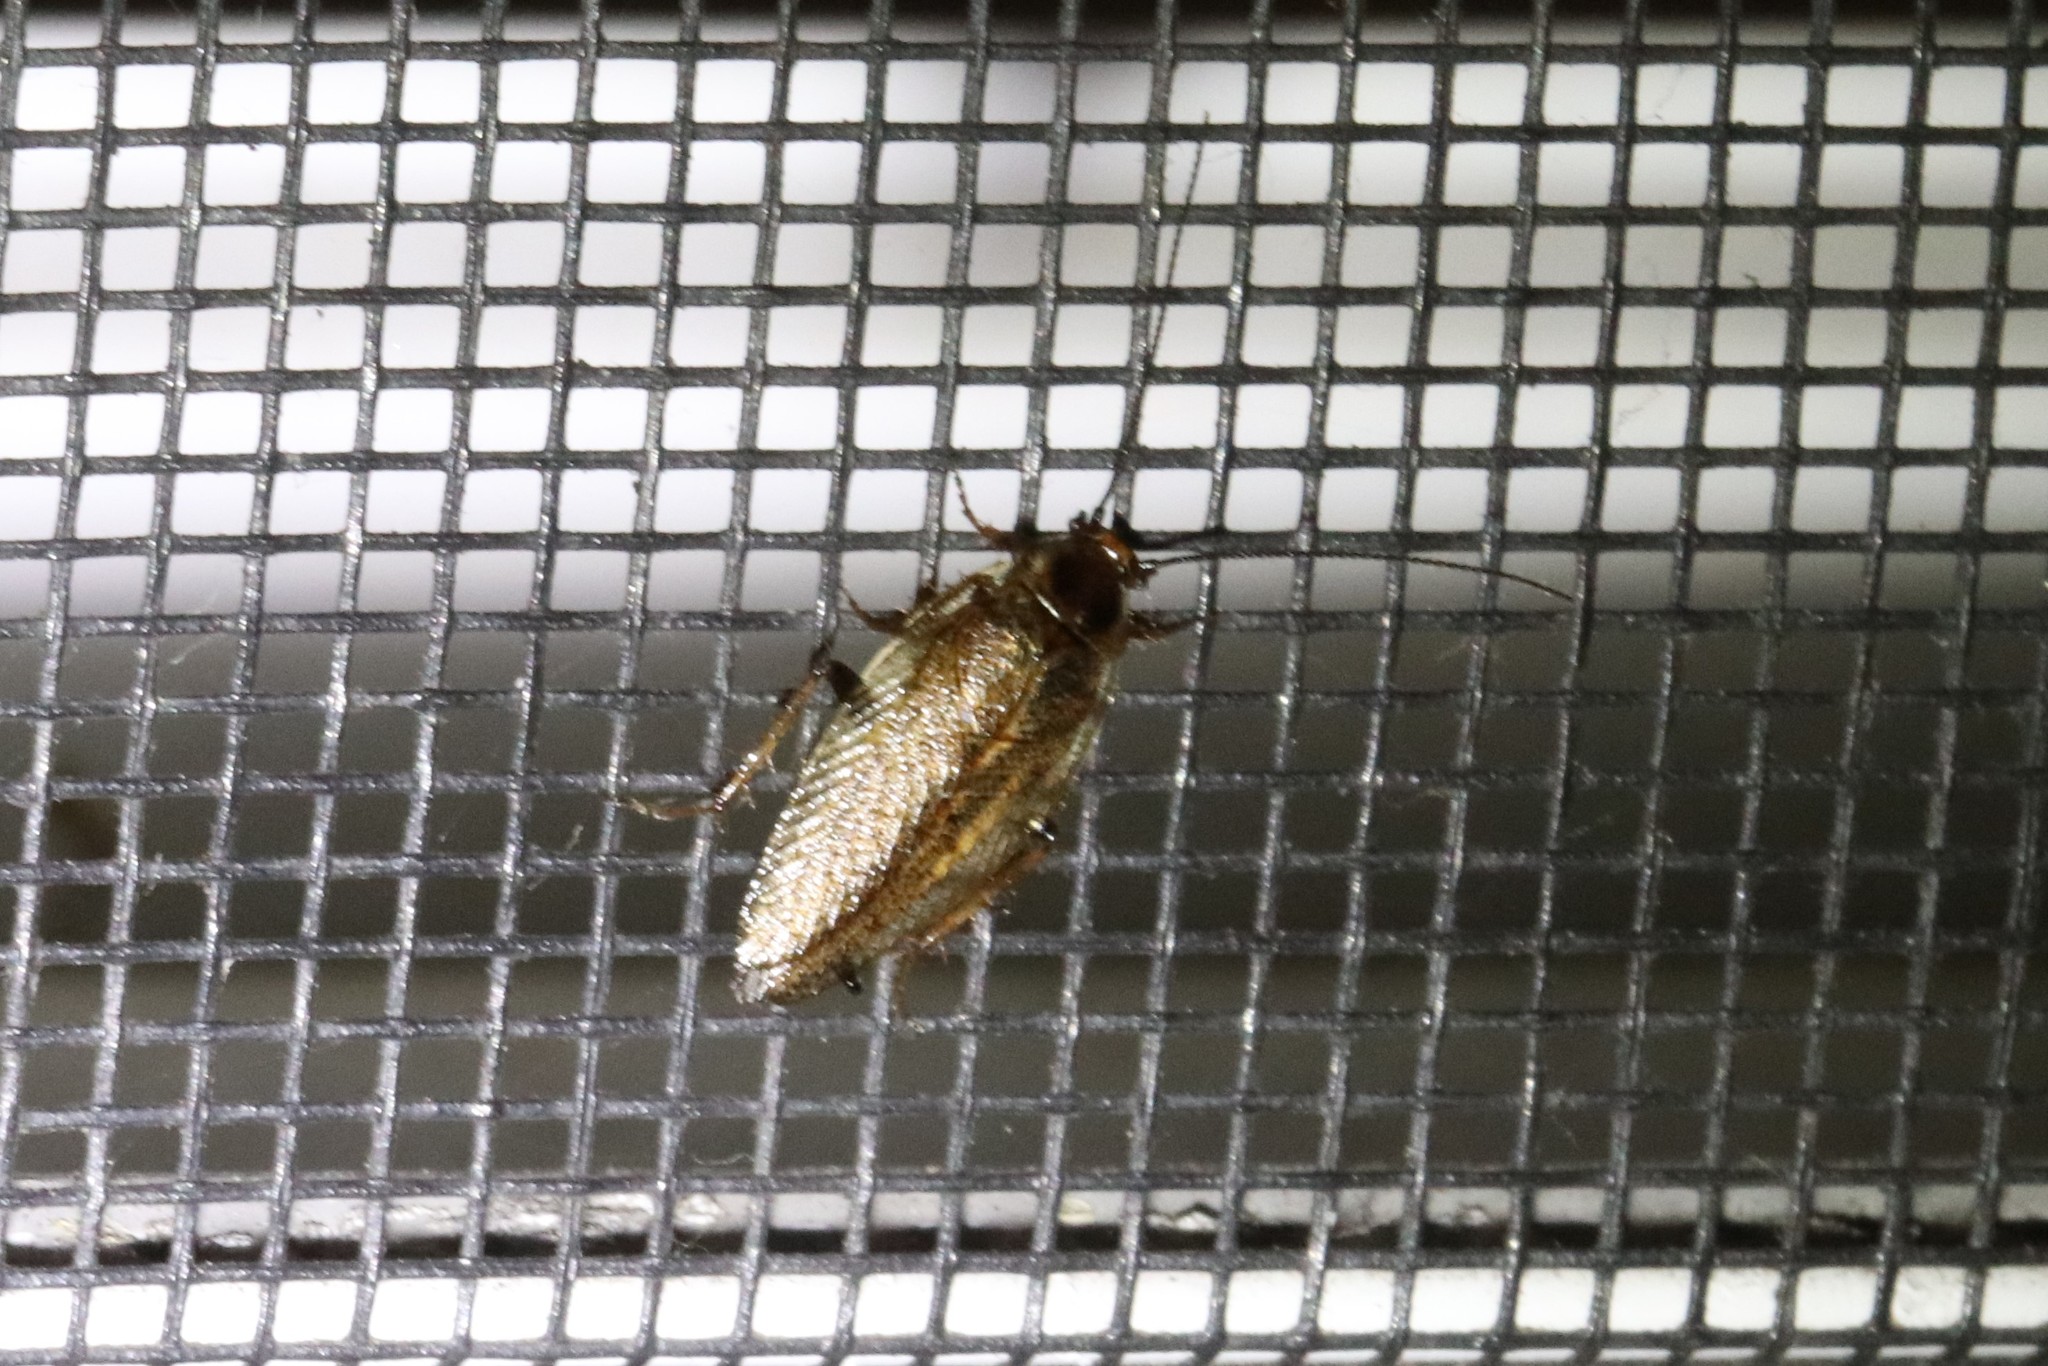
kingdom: Animalia
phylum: Arthropoda
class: Insecta
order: Blattodea
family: Ectobiidae
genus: Ectobius
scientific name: Ectobius lapponicus
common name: Dusky cockroach
